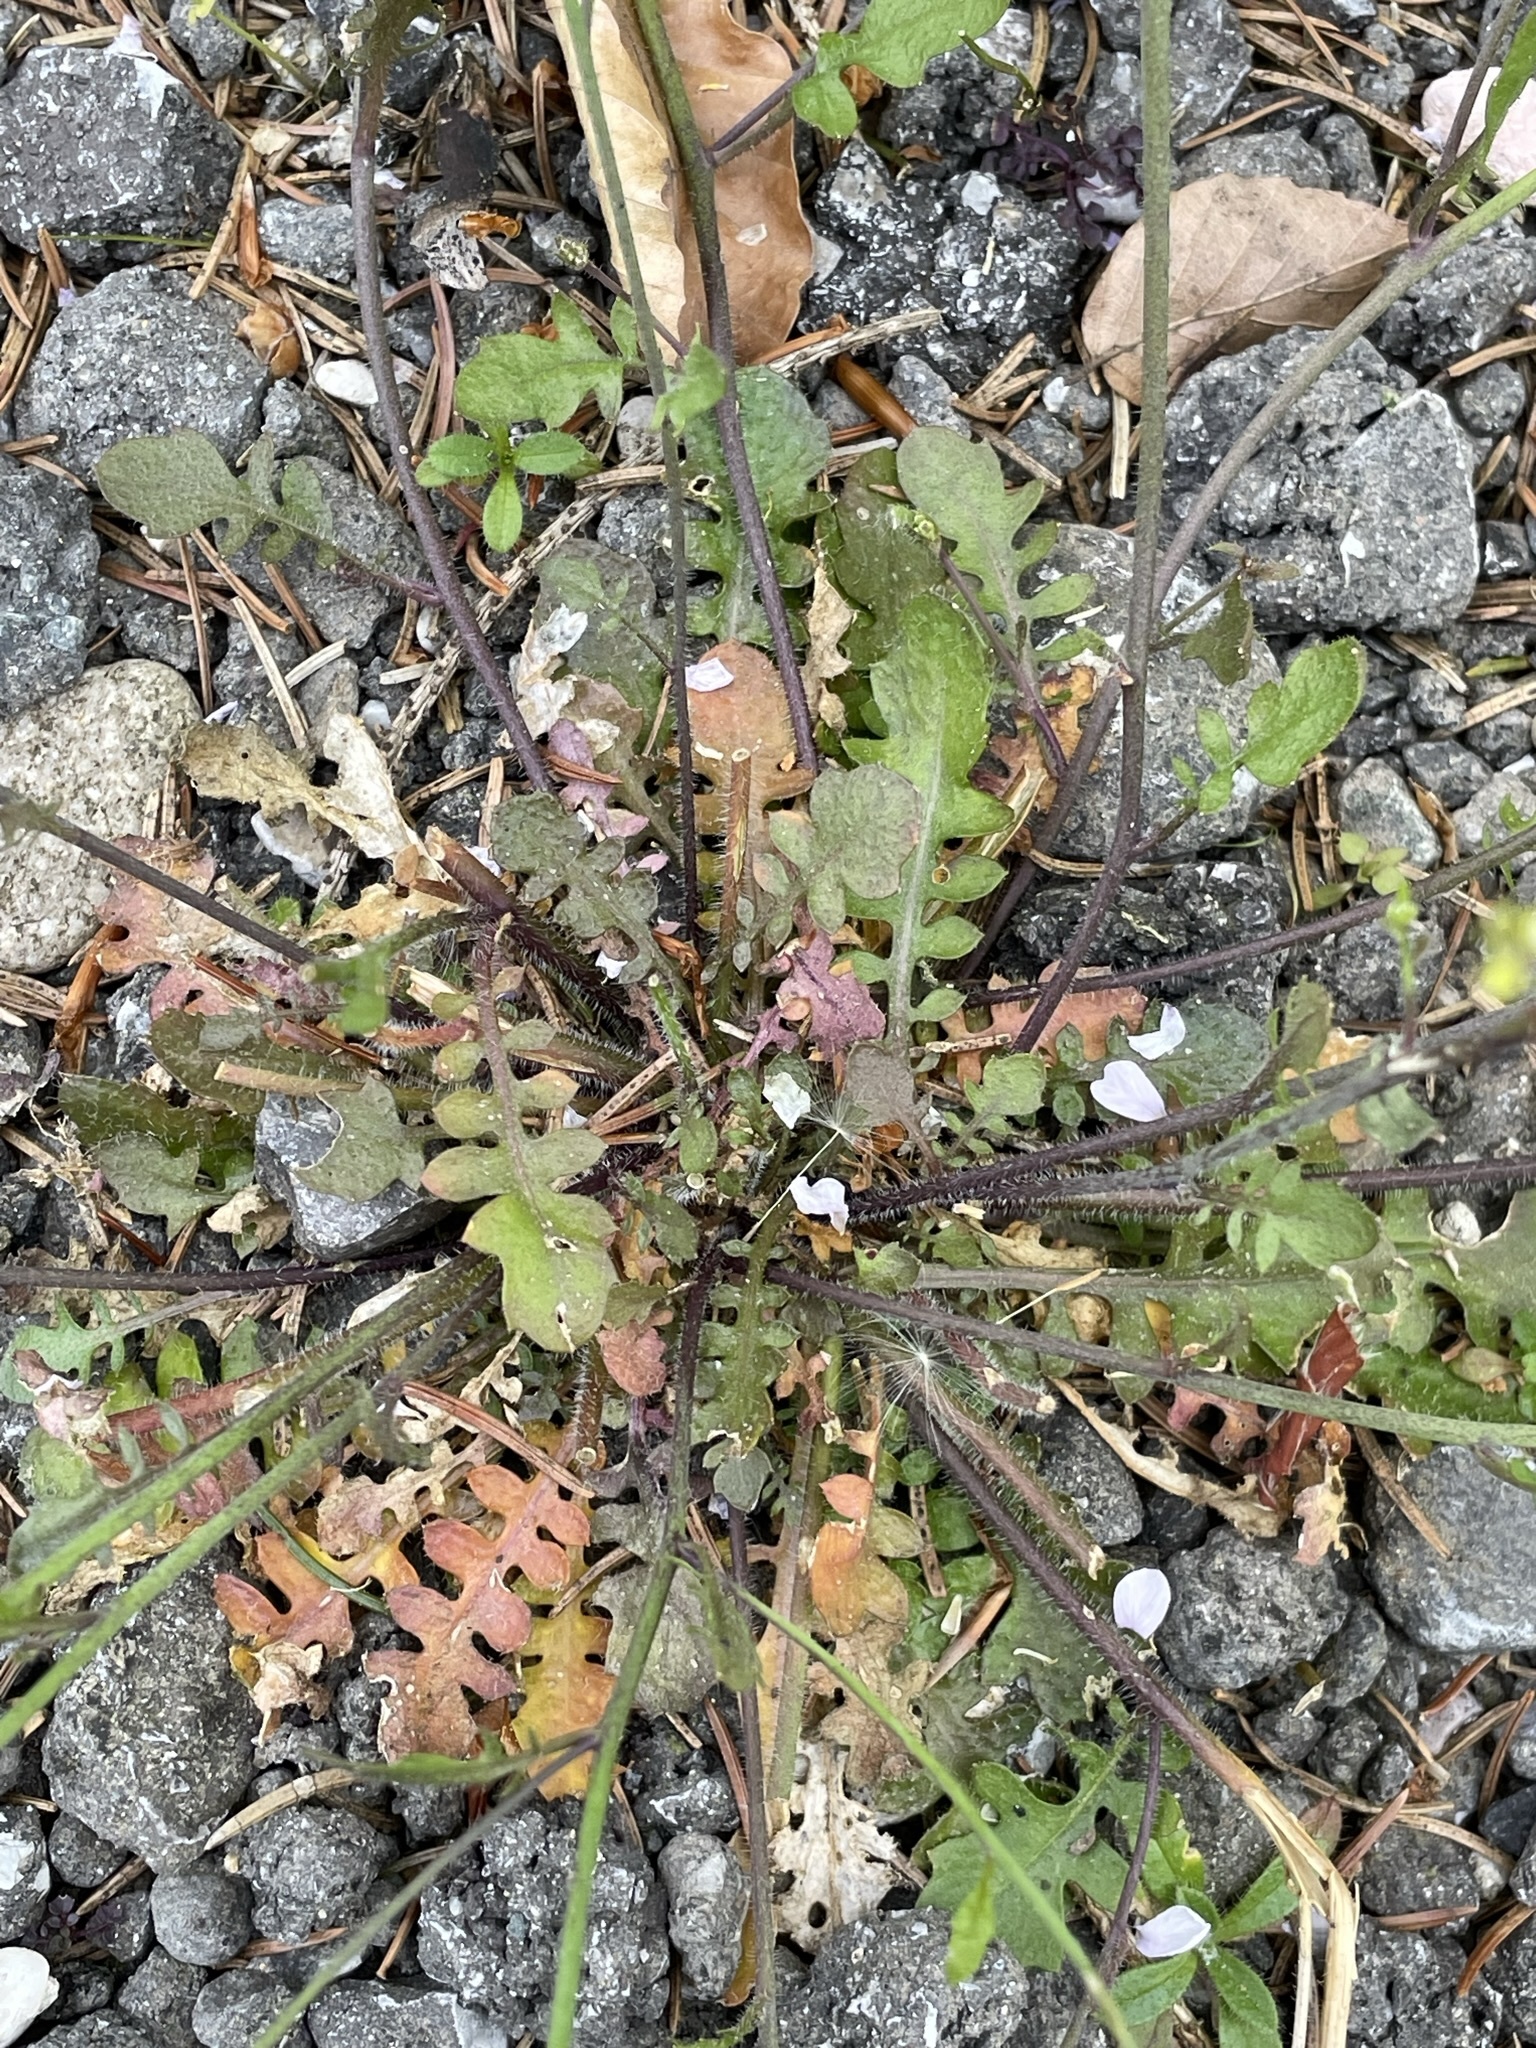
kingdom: Plantae
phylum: Tracheophyta
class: Magnoliopsida
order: Brassicales
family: Brassicaceae
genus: Arabidopsis
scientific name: Arabidopsis arenosa
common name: Sand rock-cress
